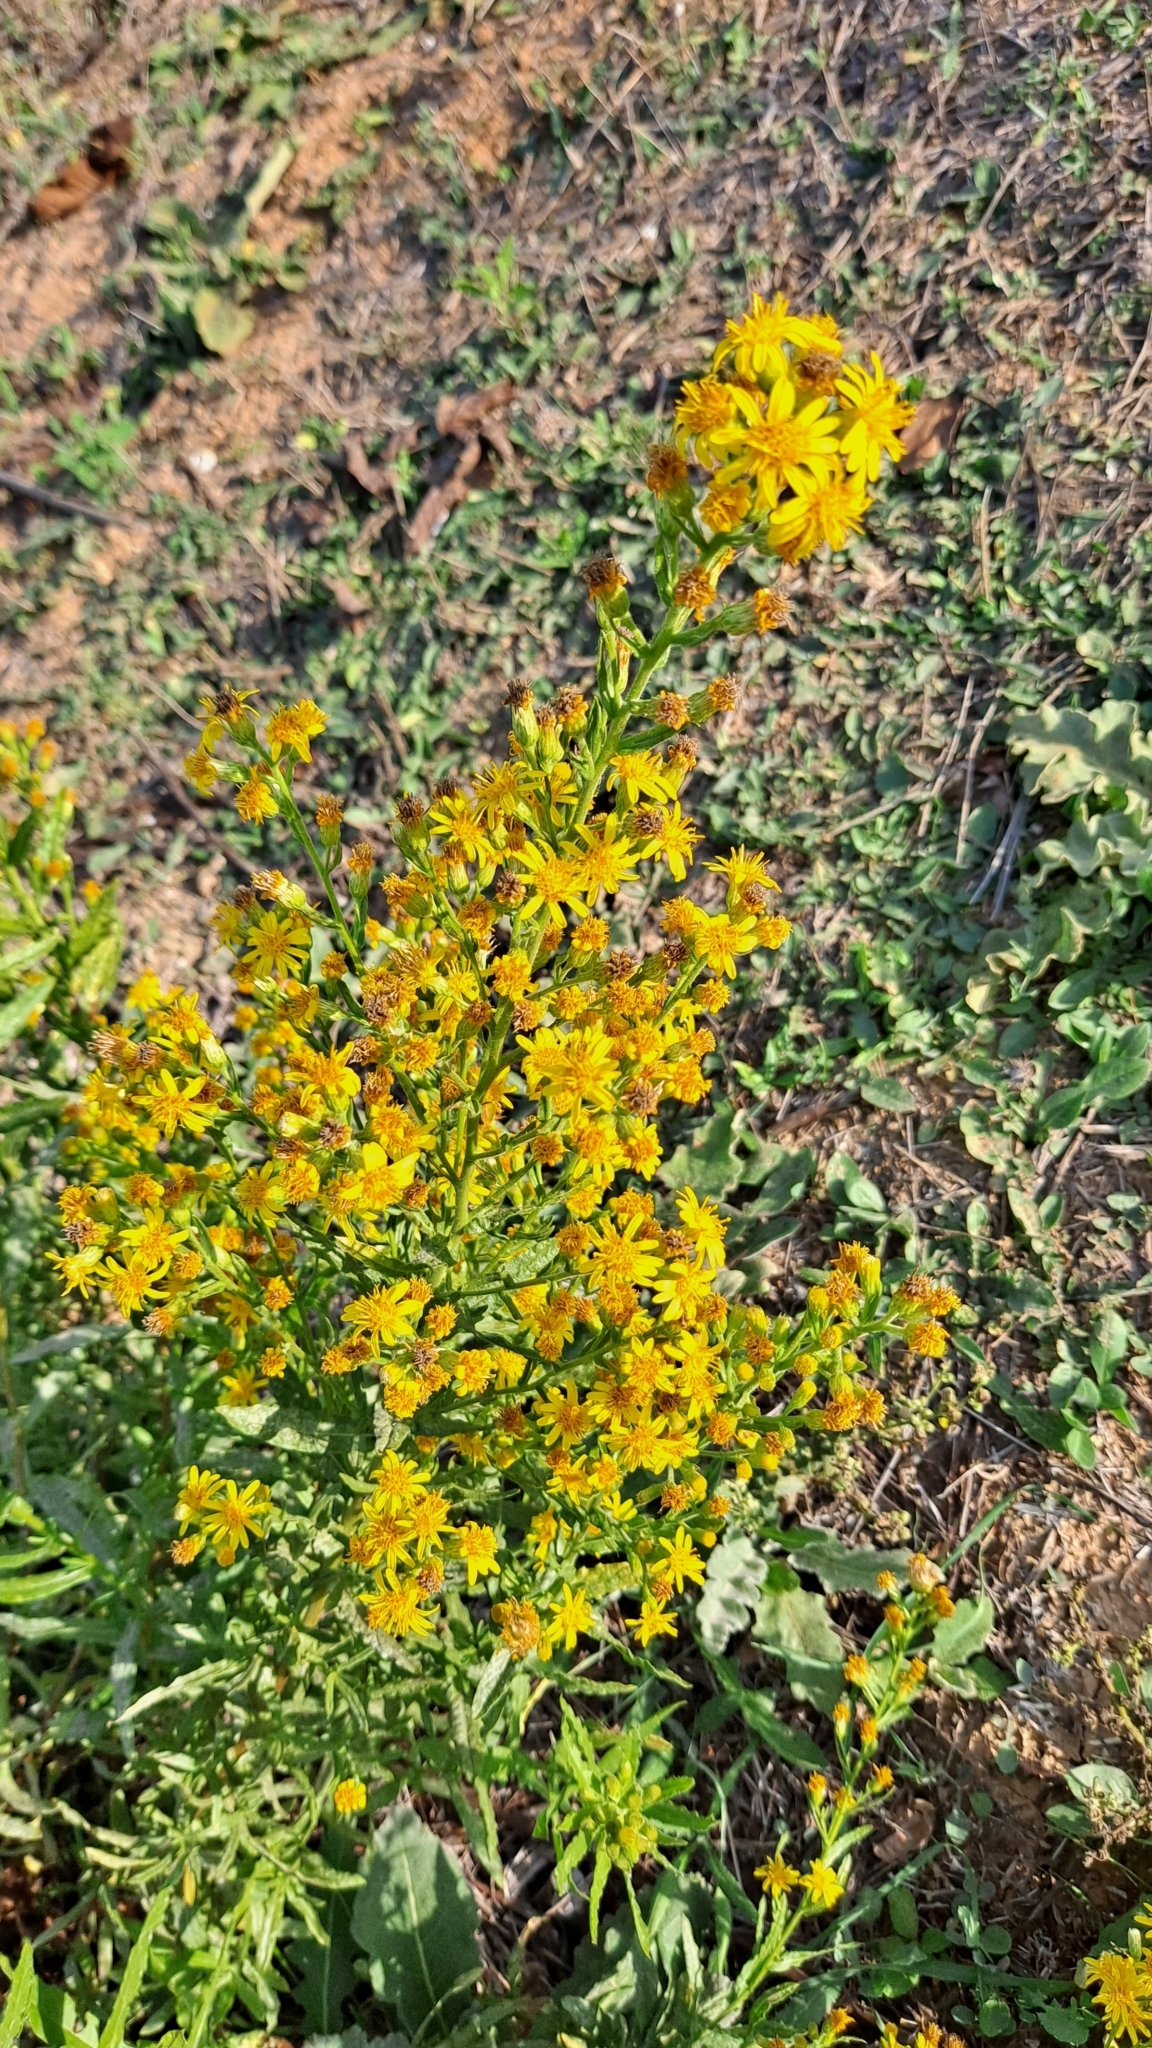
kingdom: Plantae
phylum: Tracheophyta
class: Magnoliopsida
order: Asterales
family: Asteraceae
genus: Dittrichia
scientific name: Dittrichia viscosa
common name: Woody fleabane
